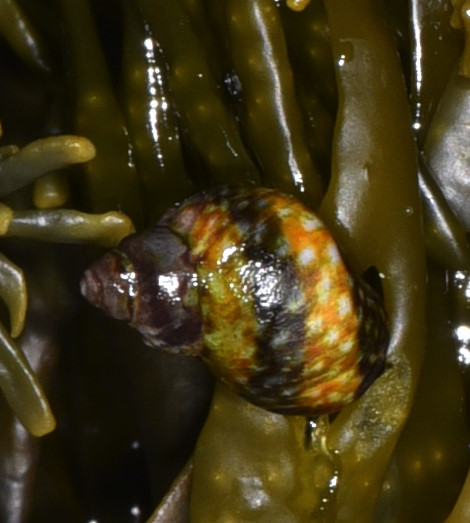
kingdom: Animalia
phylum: Mollusca
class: Gastropoda
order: Littorinimorpha
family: Littorinidae
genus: Littorina
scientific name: Littorina scutulata
